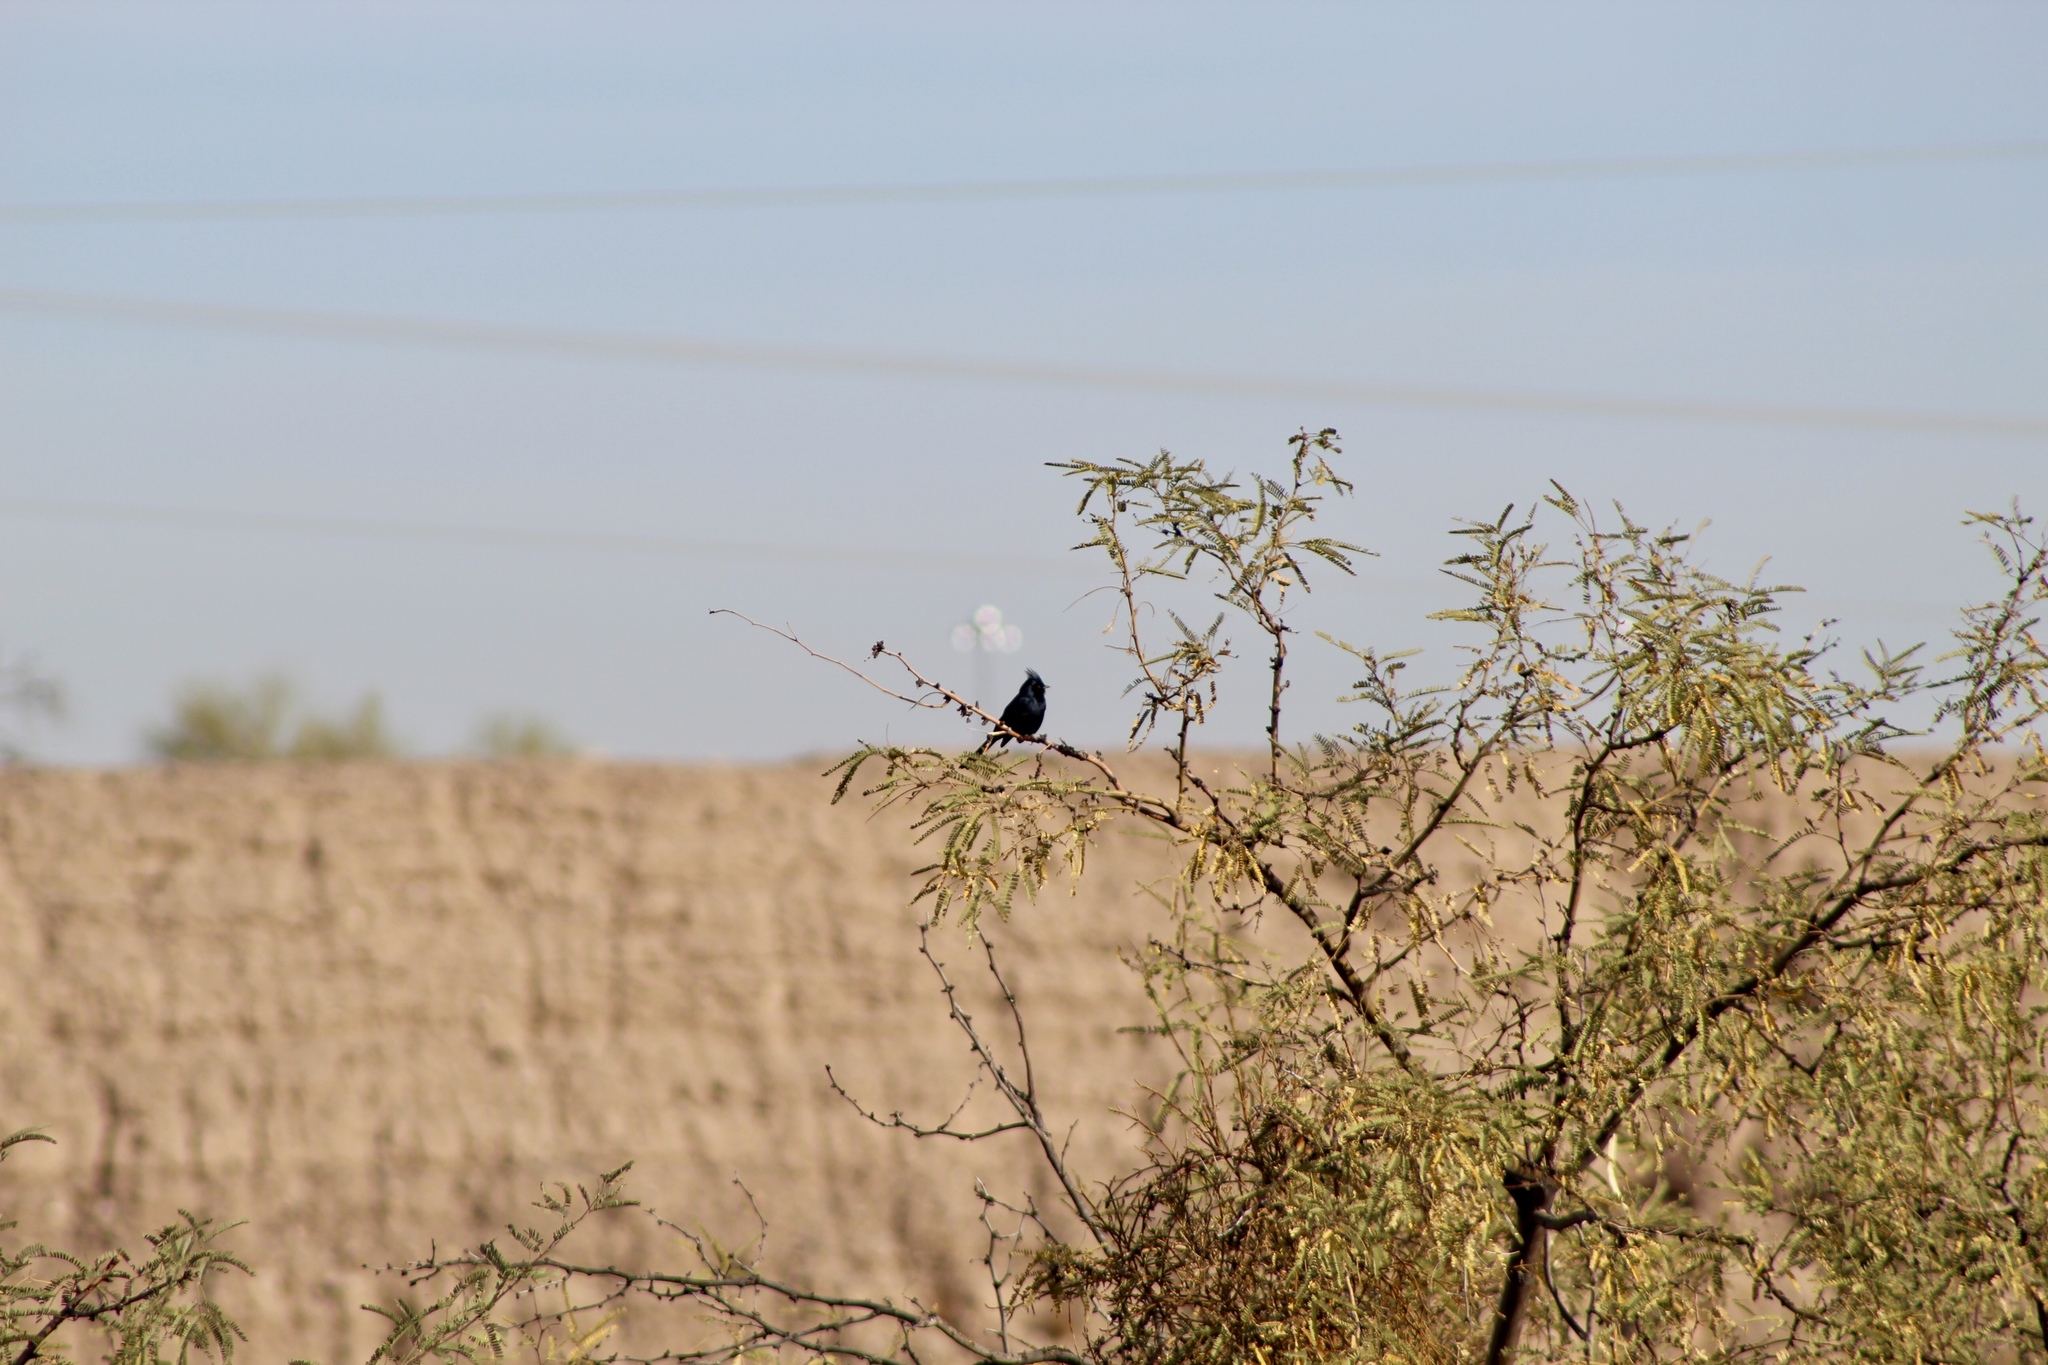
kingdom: Animalia
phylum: Chordata
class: Aves
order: Passeriformes
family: Ptilogonatidae
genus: Phainopepla
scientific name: Phainopepla nitens
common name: Phainopepla
